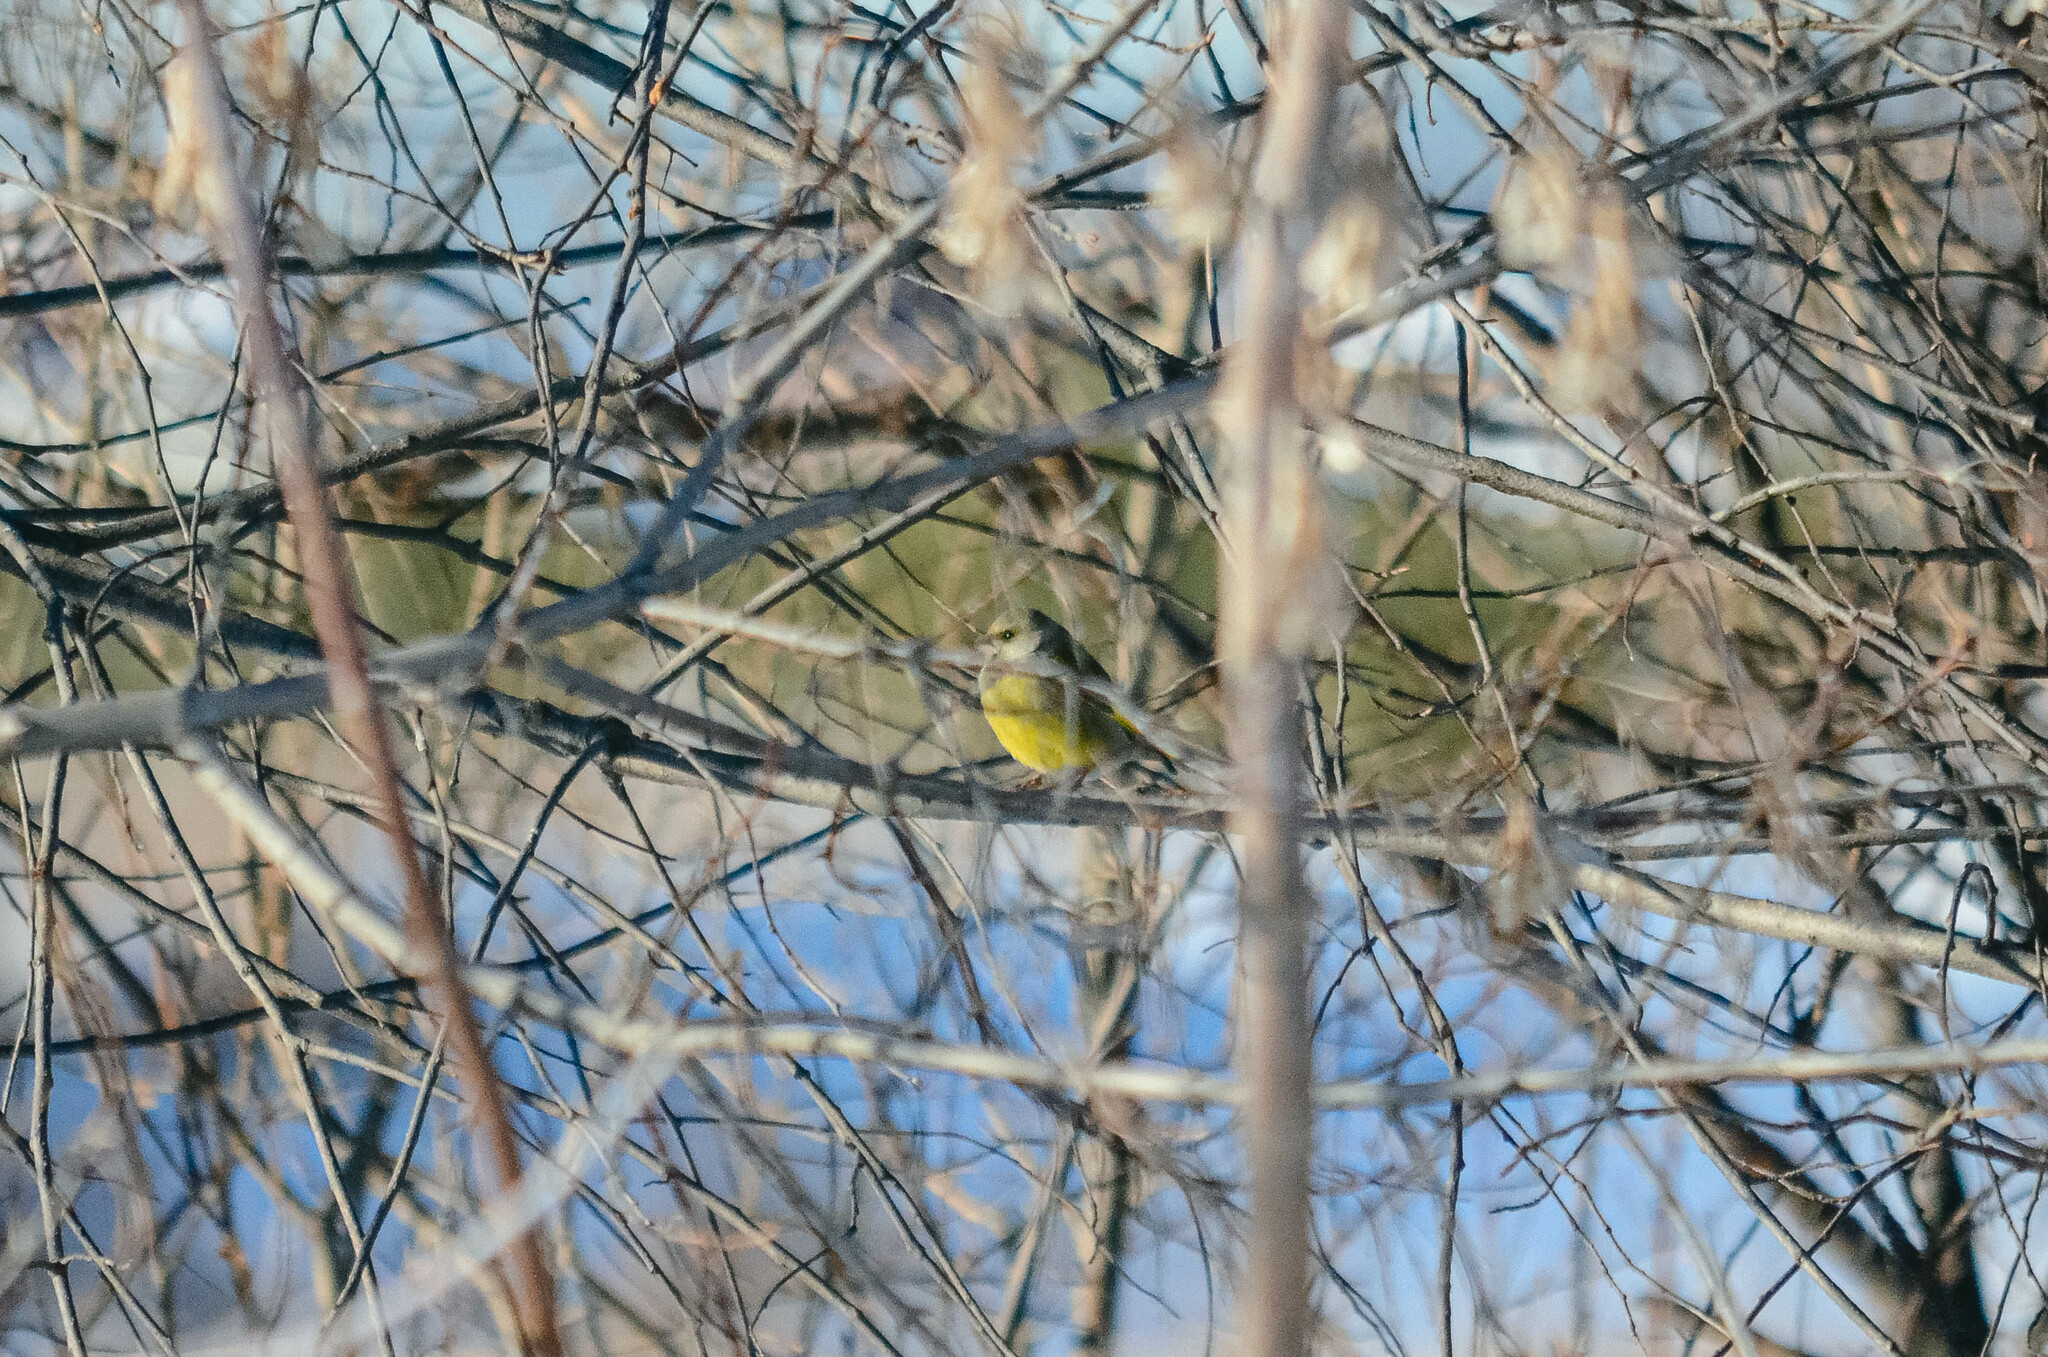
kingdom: Plantae
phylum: Tracheophyta
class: Liliopsida
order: Poales
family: Poaceae
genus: Chloris
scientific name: Chloris chloris
